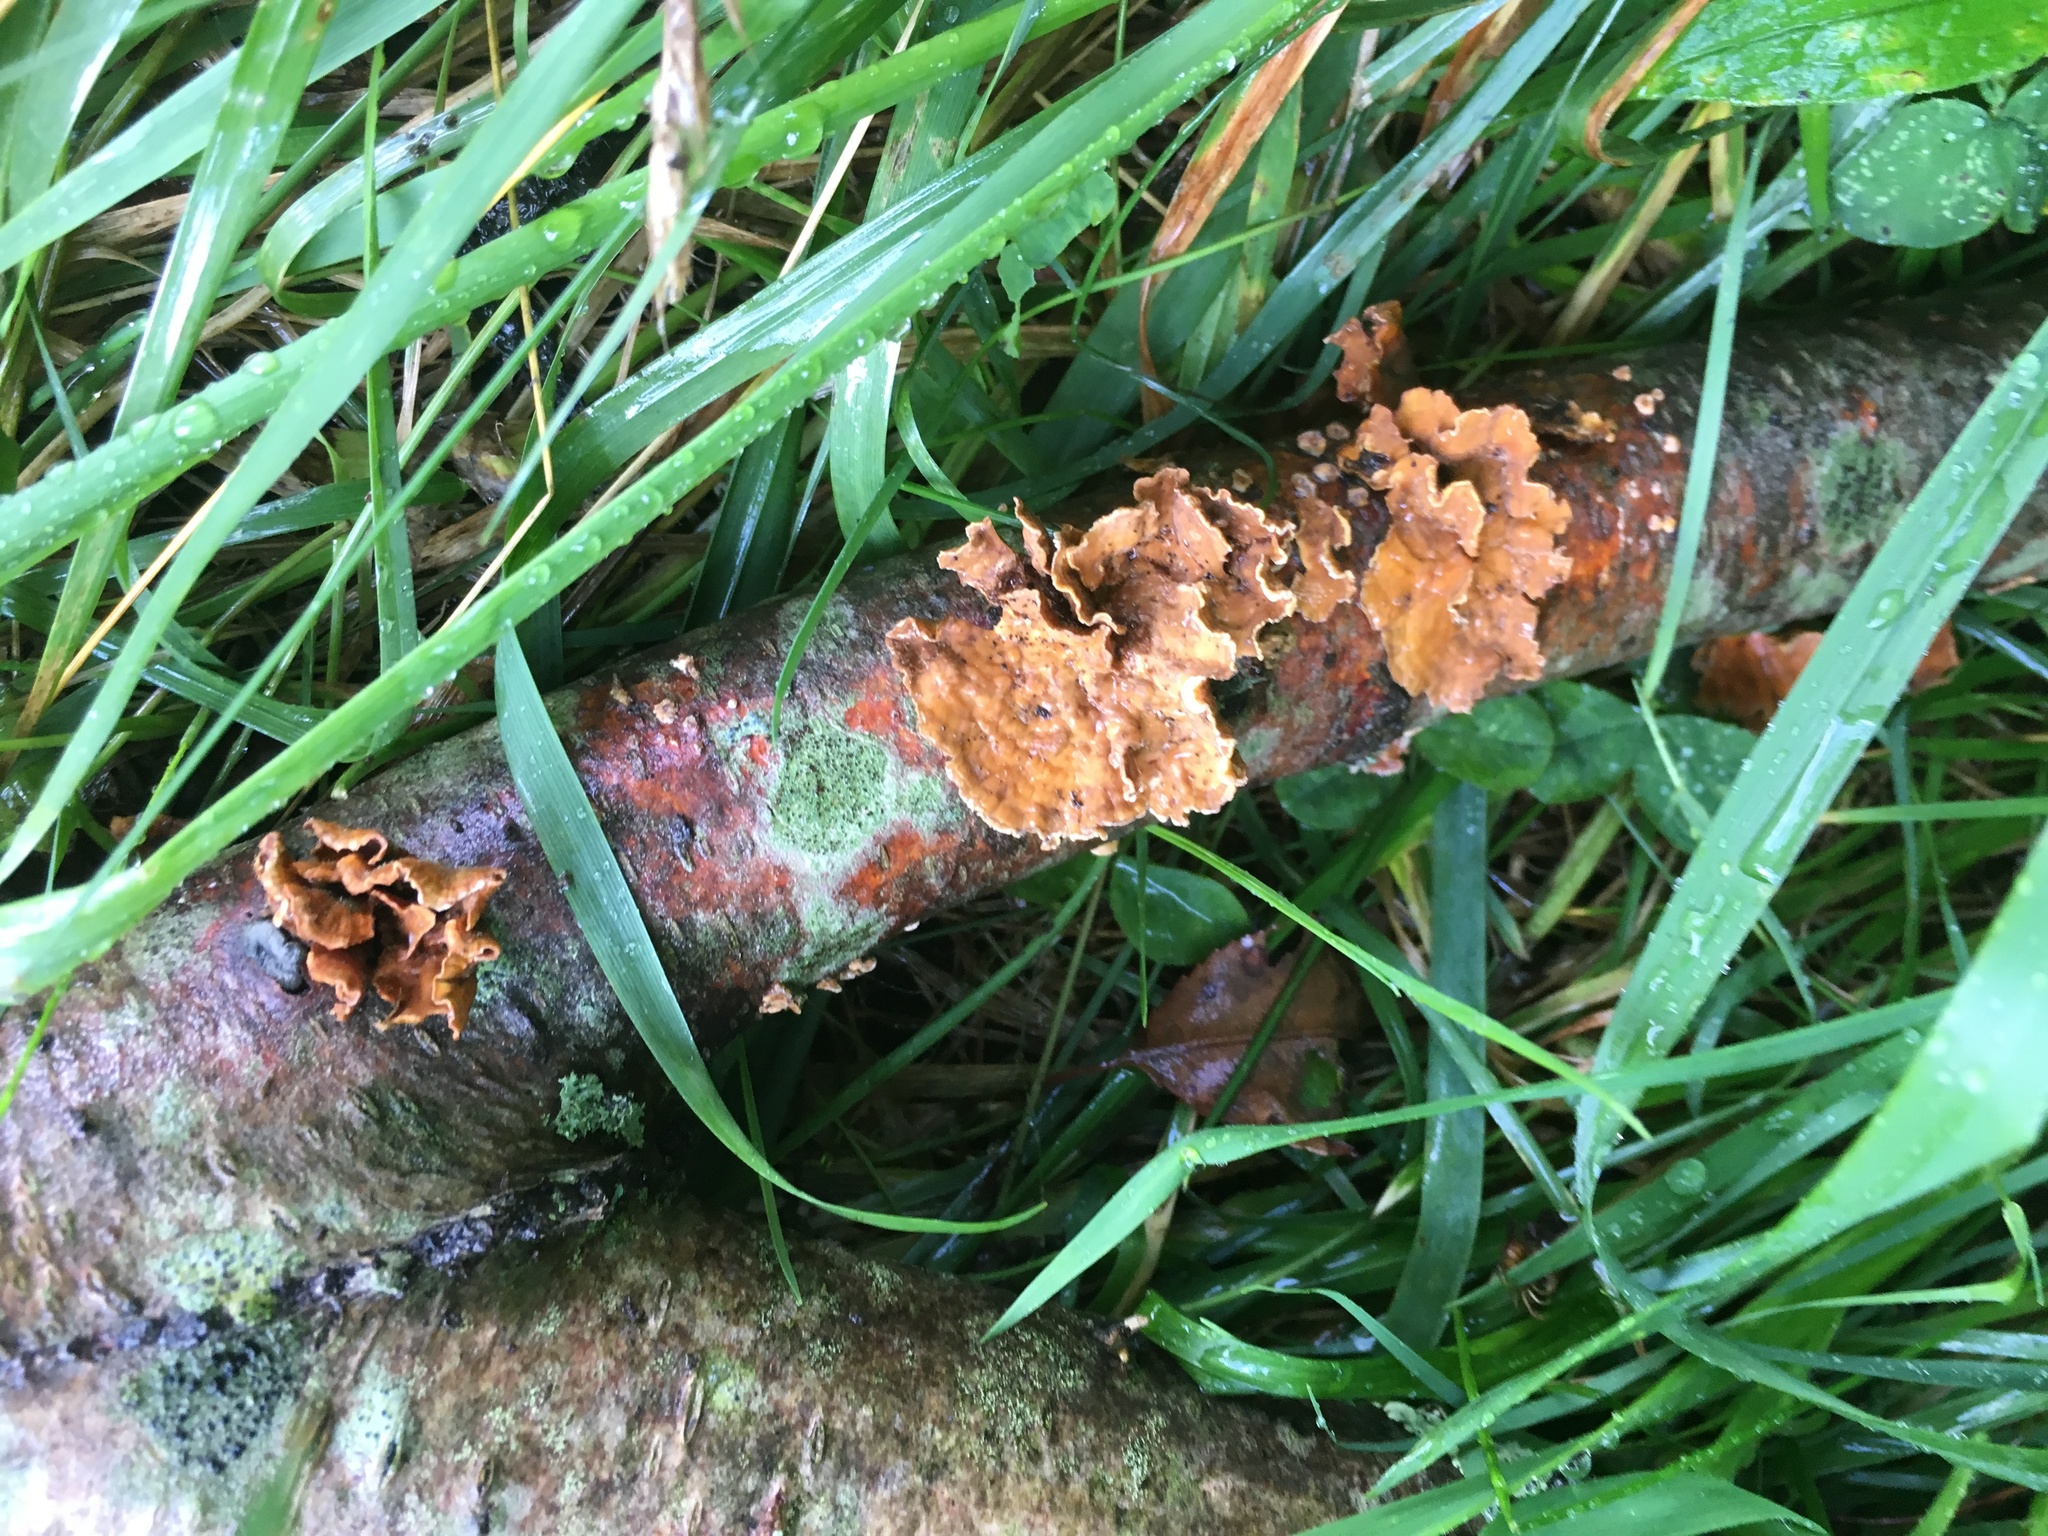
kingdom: Fungi
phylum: Basidiomycota
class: Agaricomycetes
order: Russulales
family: Stereaceae
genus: Stereum
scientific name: Stereum complicatum
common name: Crowded parchment
